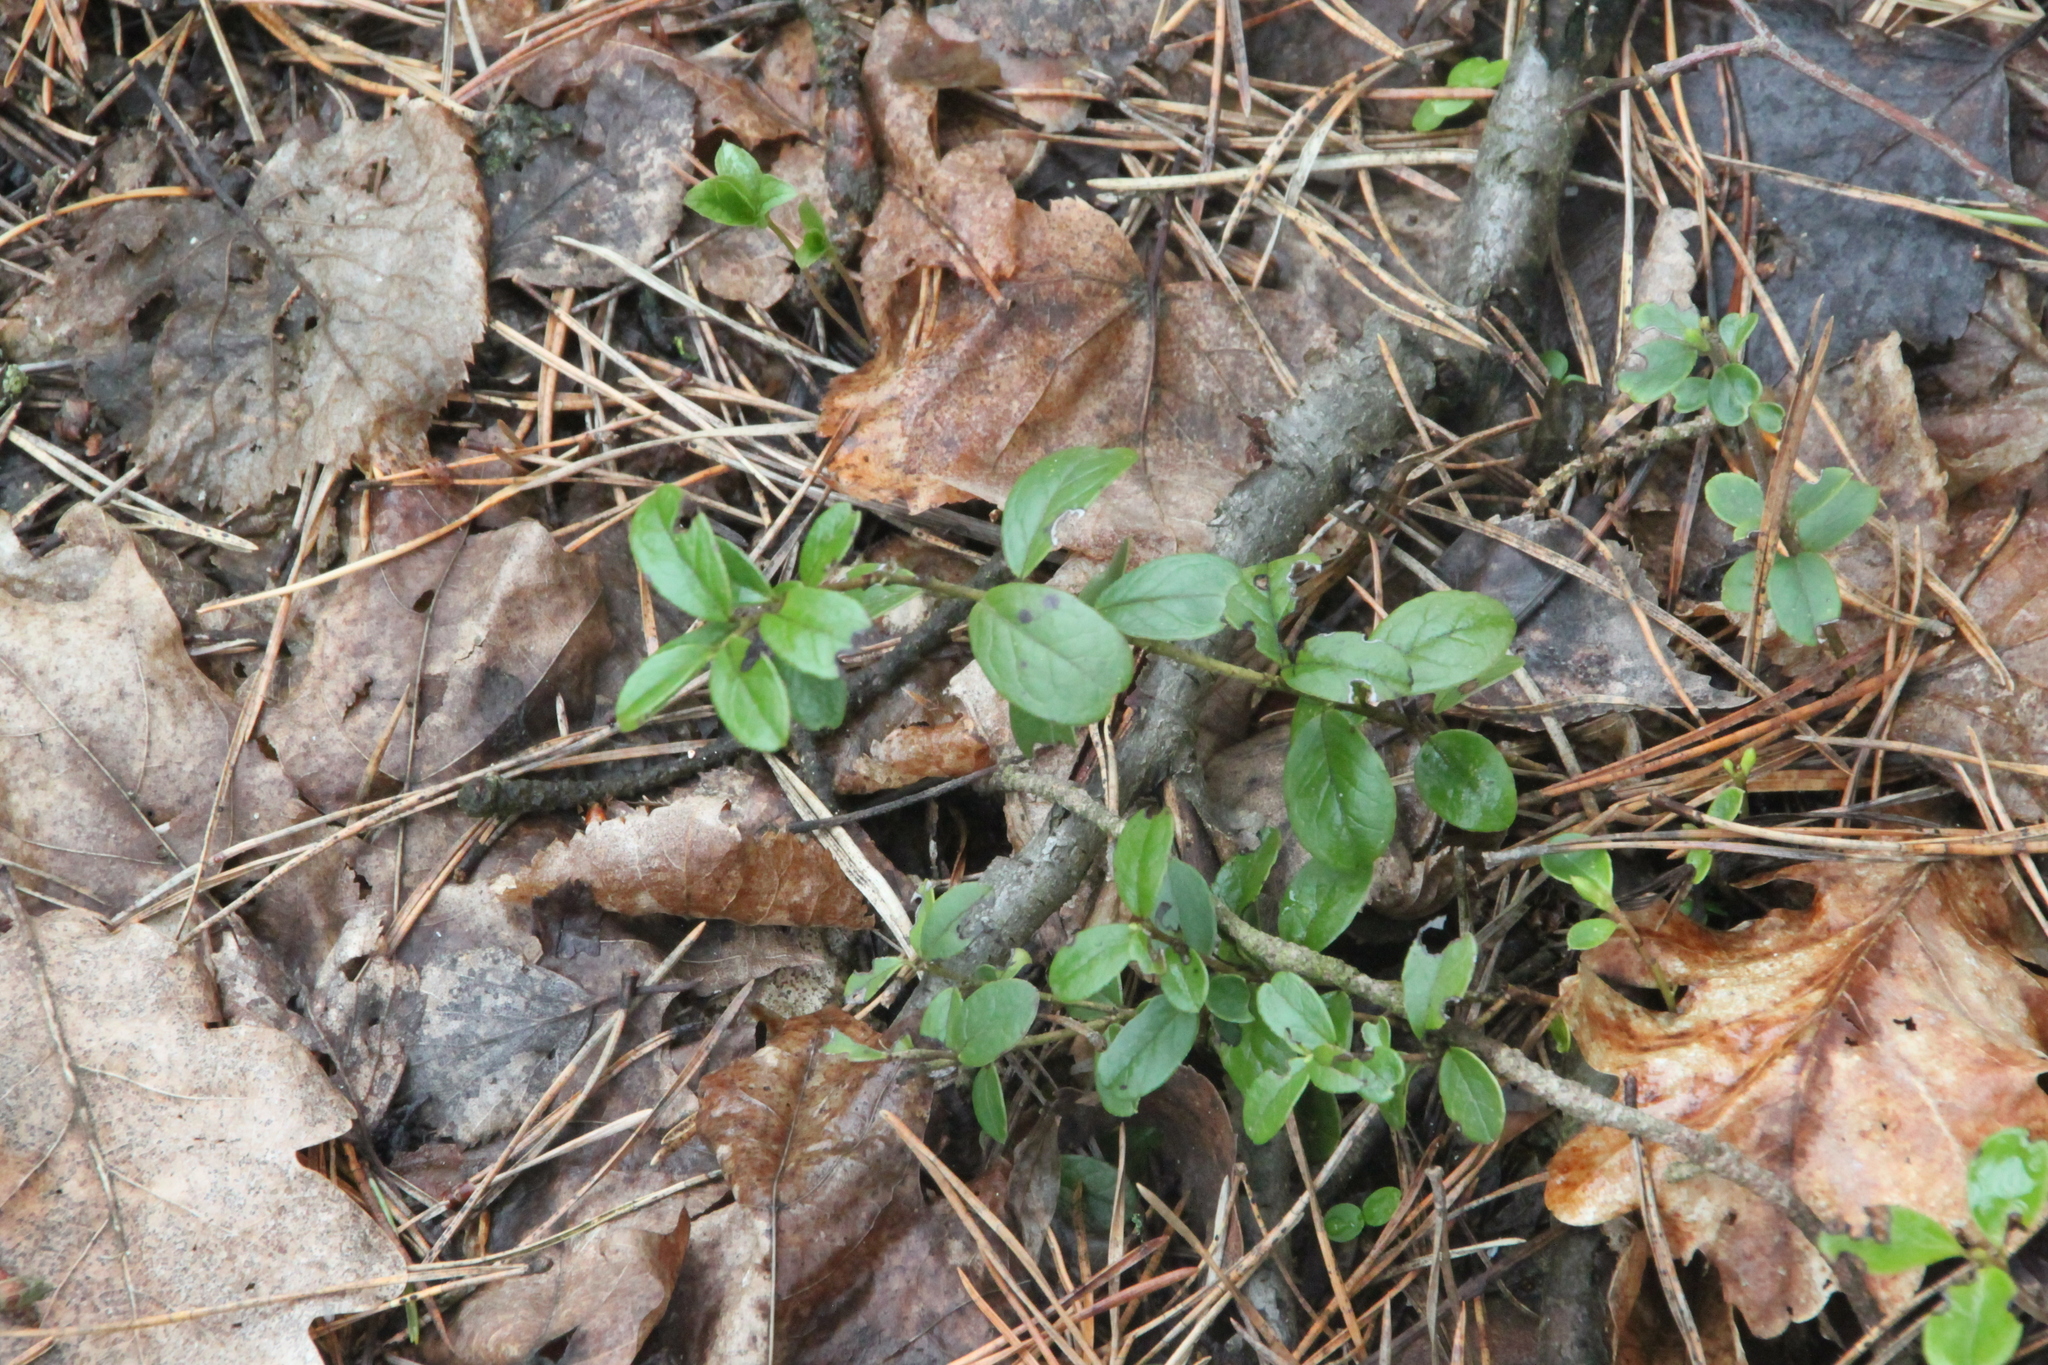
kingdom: Plantae
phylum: Tracheophyta
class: Magnoliopsida
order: Ericales
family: Ericaceae
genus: Vaccinium
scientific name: Vaccinium vitis-idaea
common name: Cowberry
